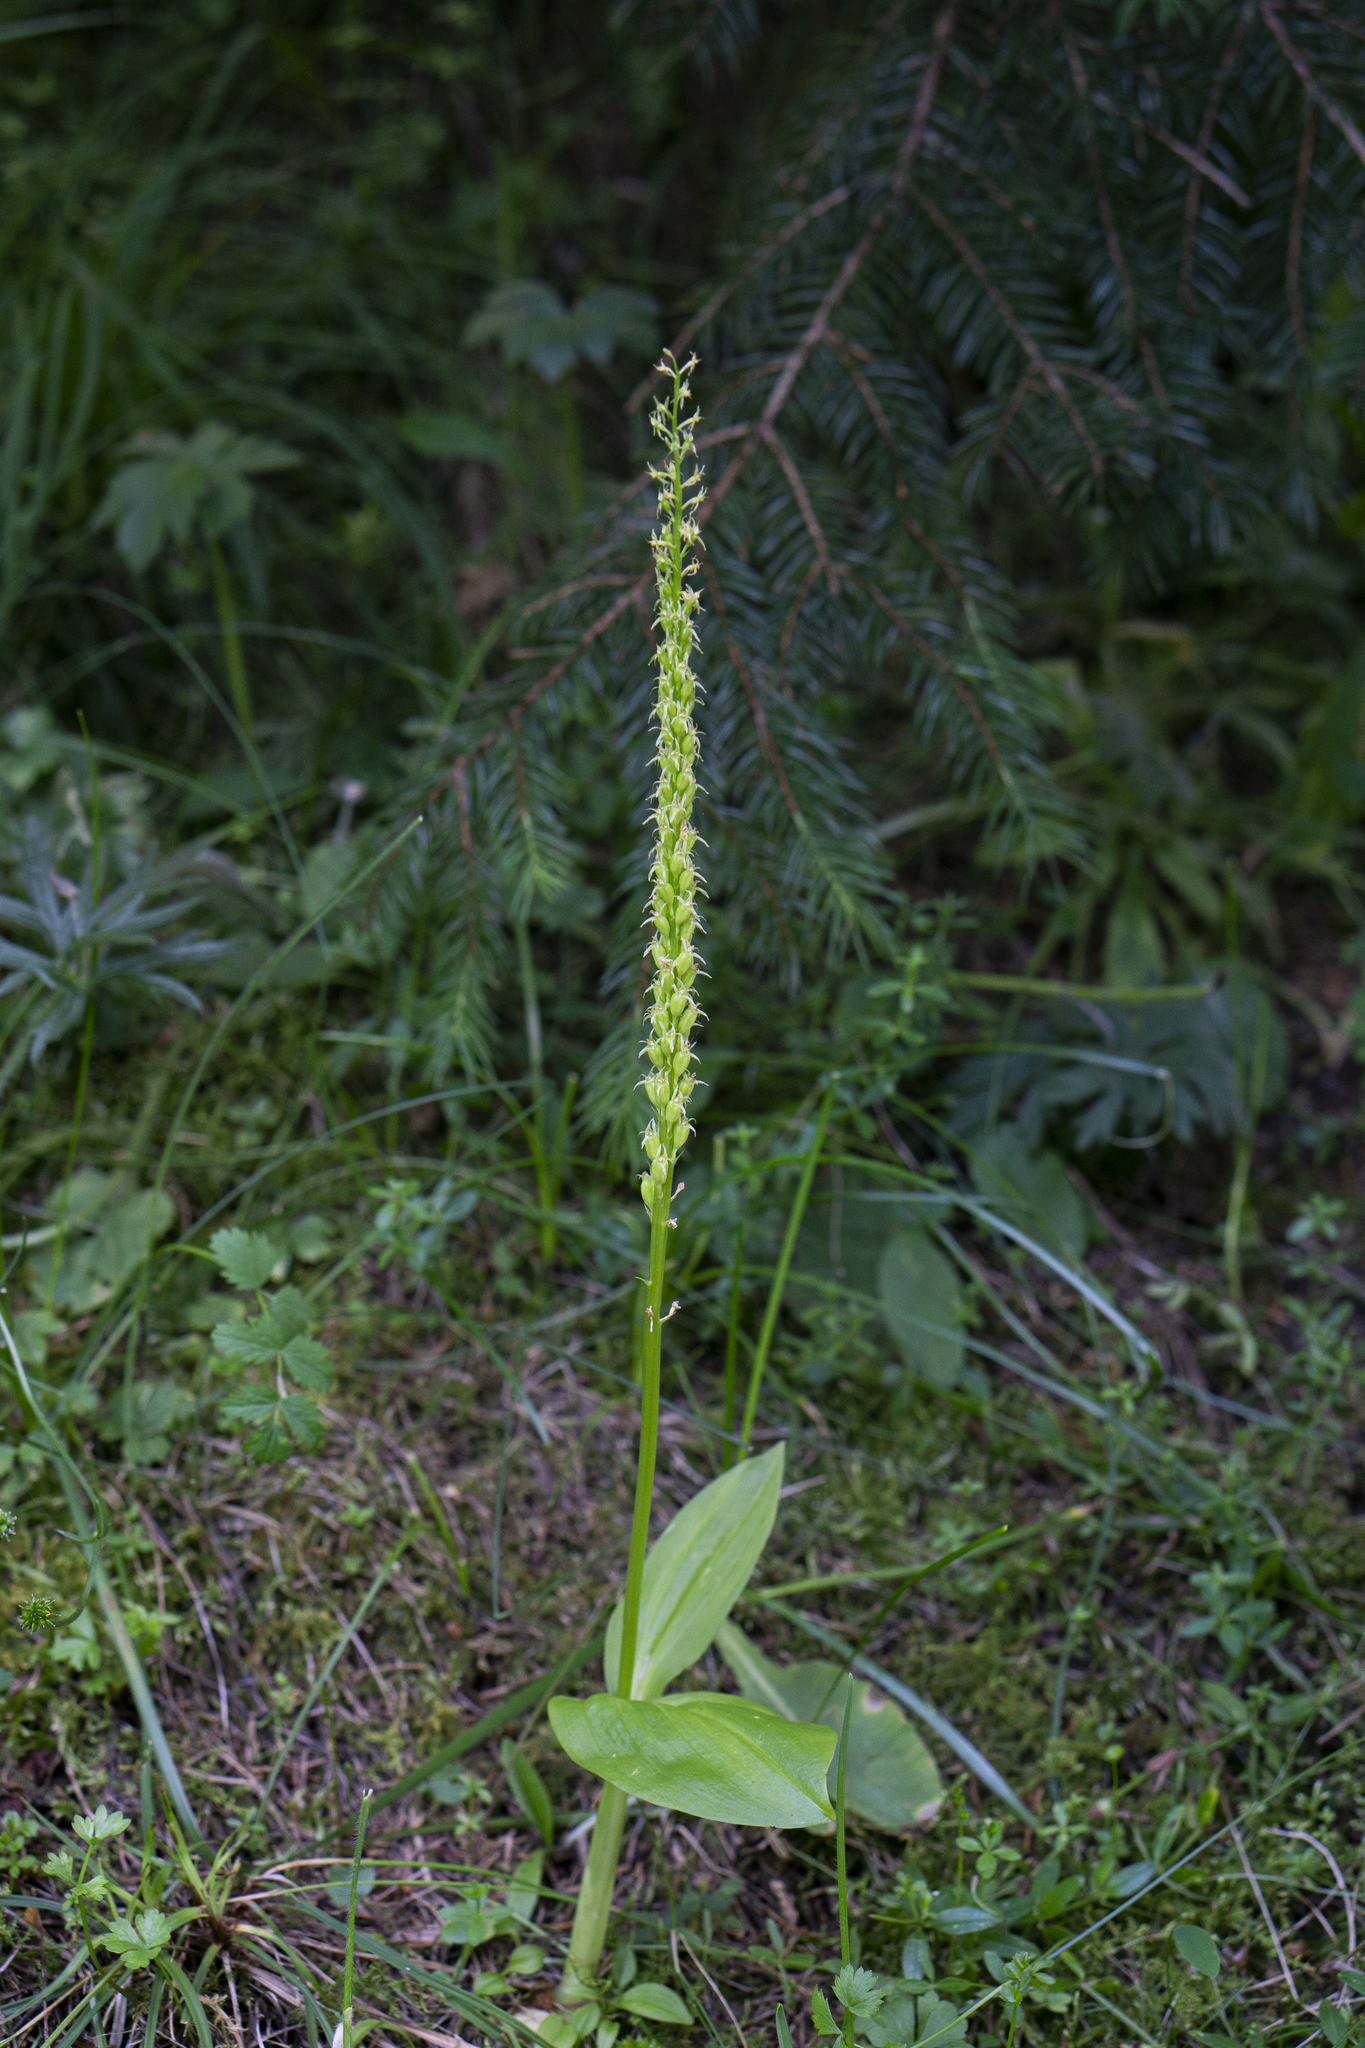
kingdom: Plantae
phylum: Tracheophyta
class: Liliopsida
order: Asparagales
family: Orchidaceae
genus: Malaxis
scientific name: Malaxis monophyllos
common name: White adder's-mouth
